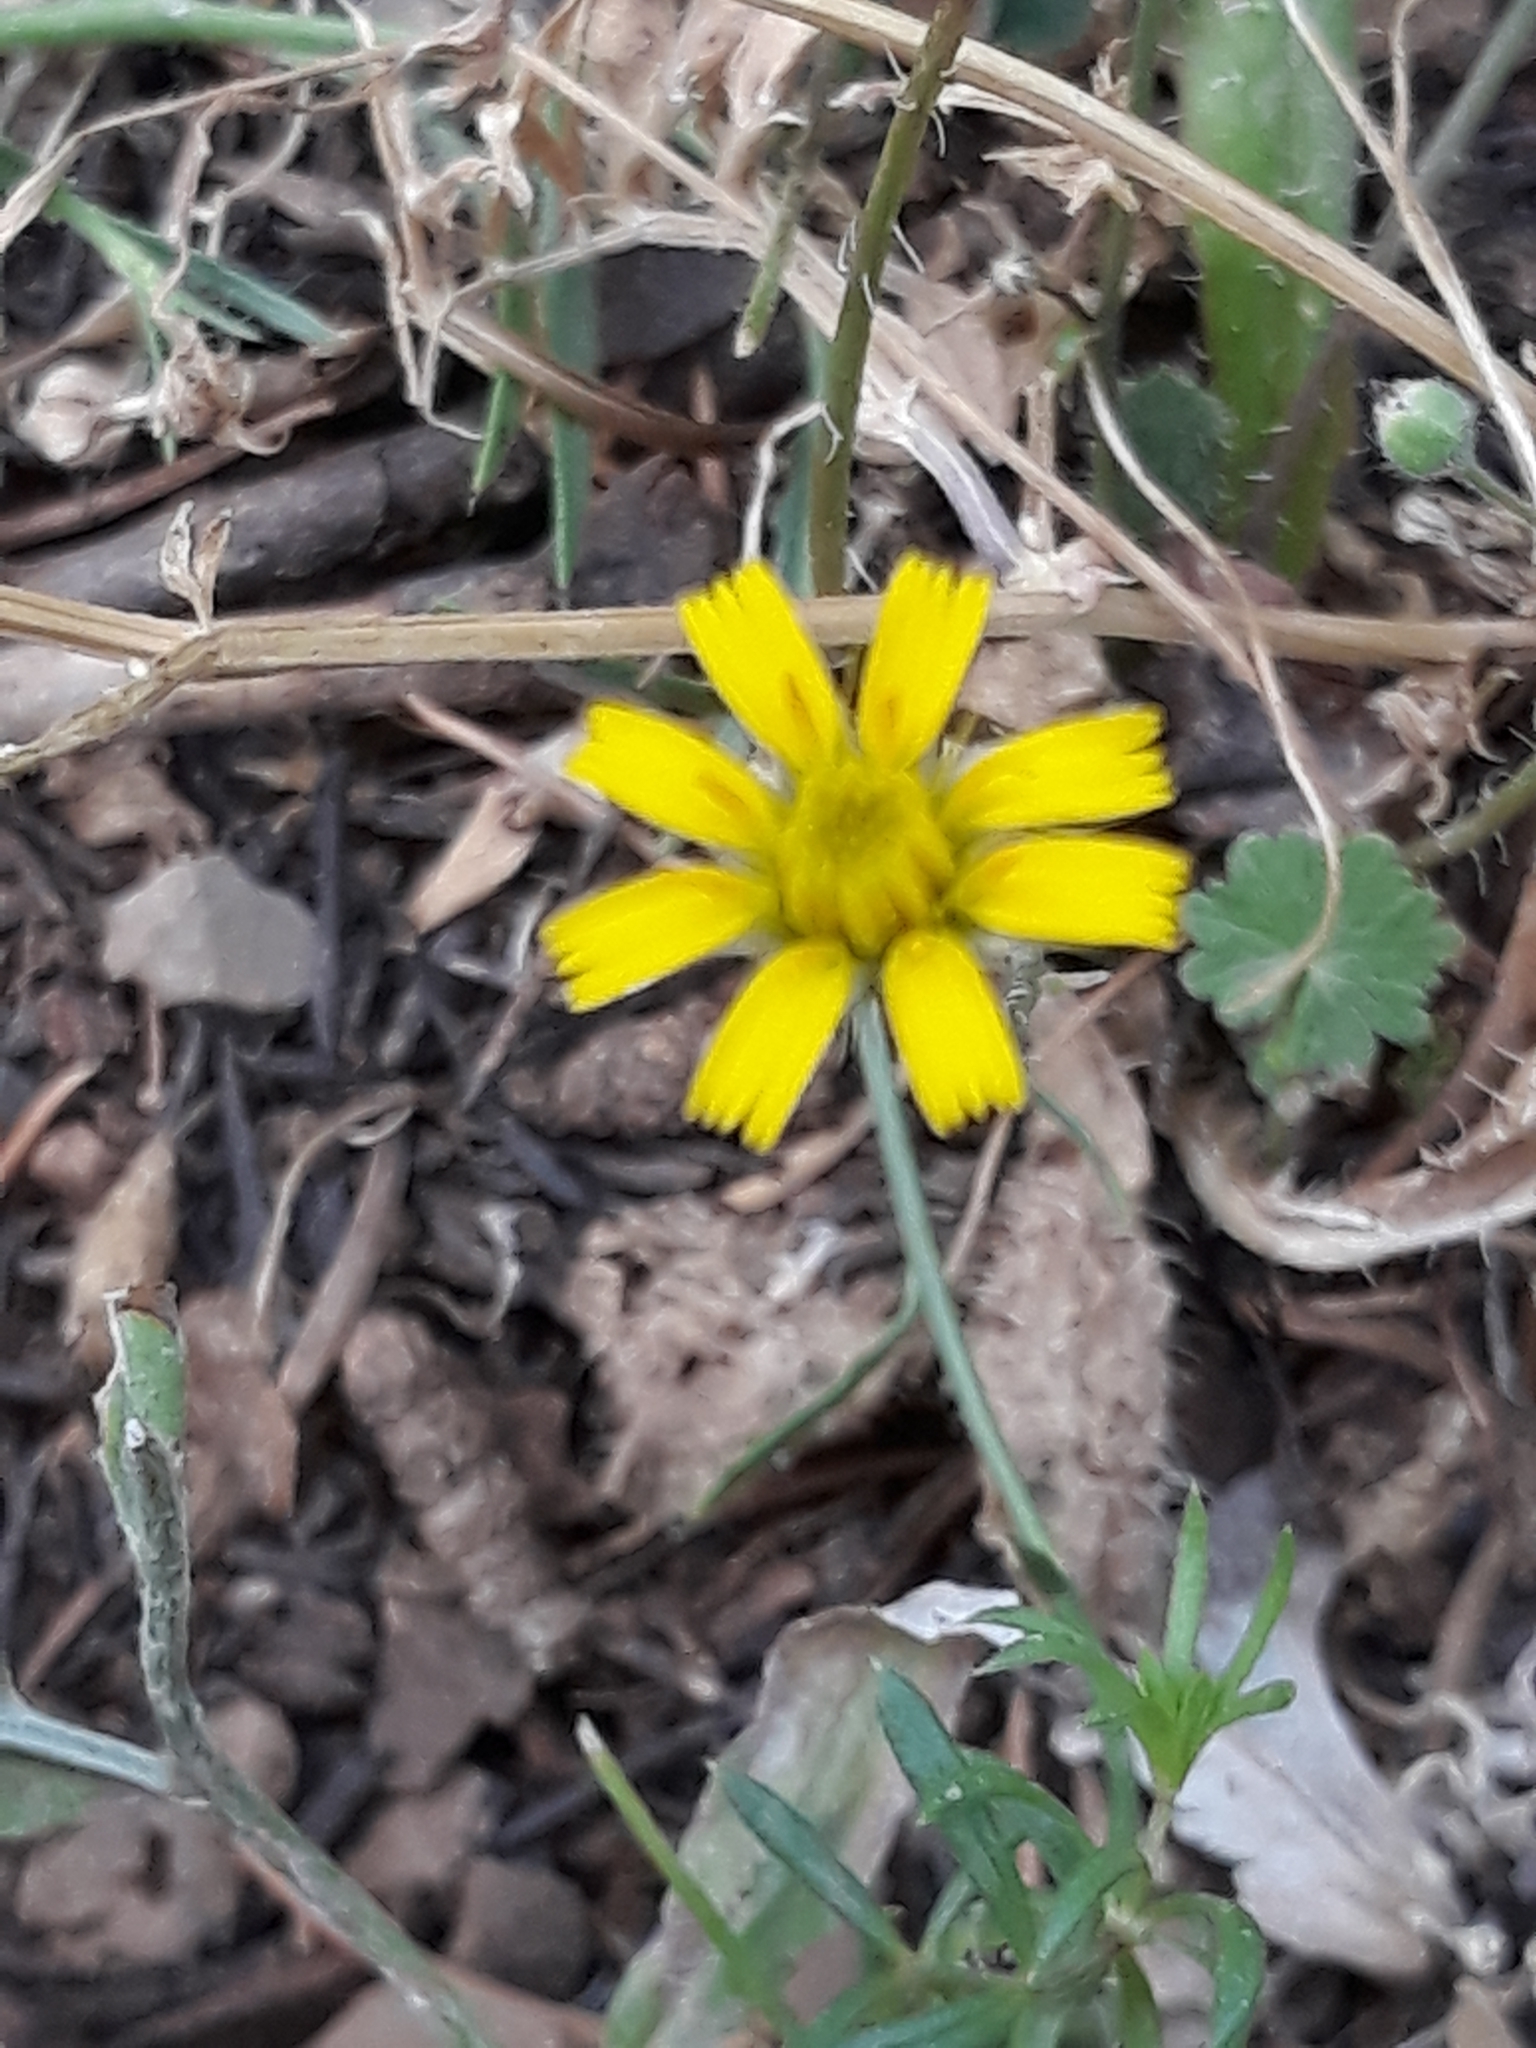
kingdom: Plantae
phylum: Tracheophyta
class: Magnoliopsida
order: Asterales
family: Asteraceae
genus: Achyrophorus
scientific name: Achyrophorus valdesii
